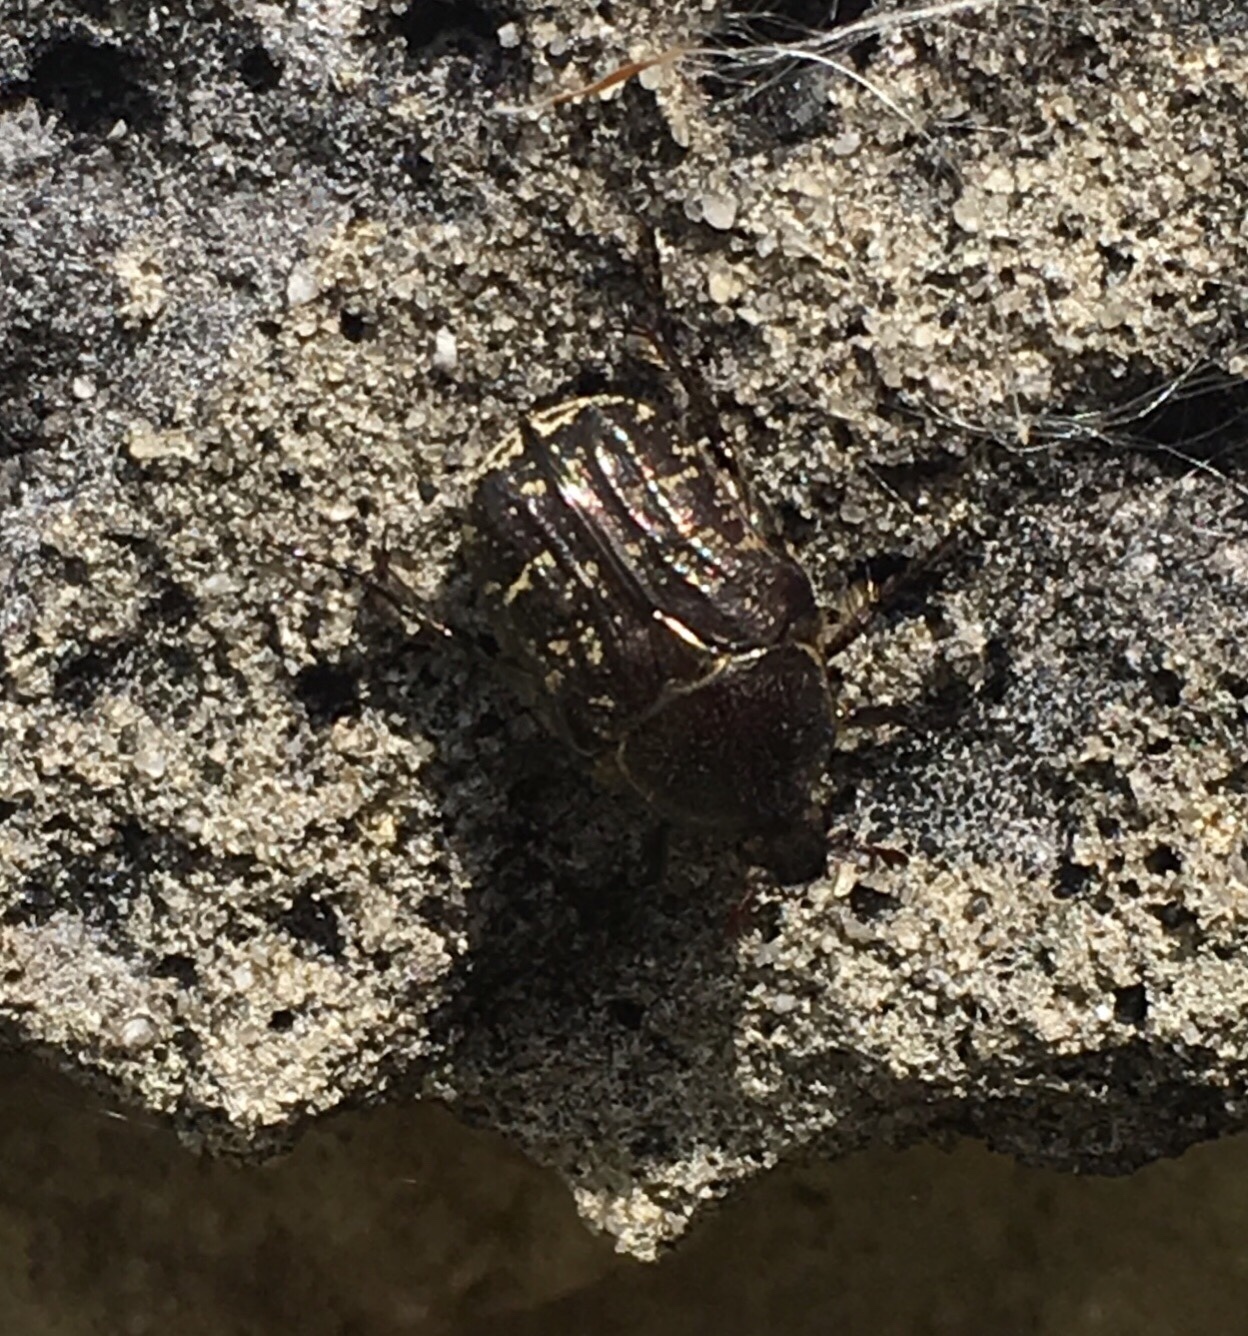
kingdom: Animalia
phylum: Arthropoda
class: Insecta
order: Coleoptera
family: Scarabaeidae
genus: Euphoria
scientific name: Euphoria sepulcralis
